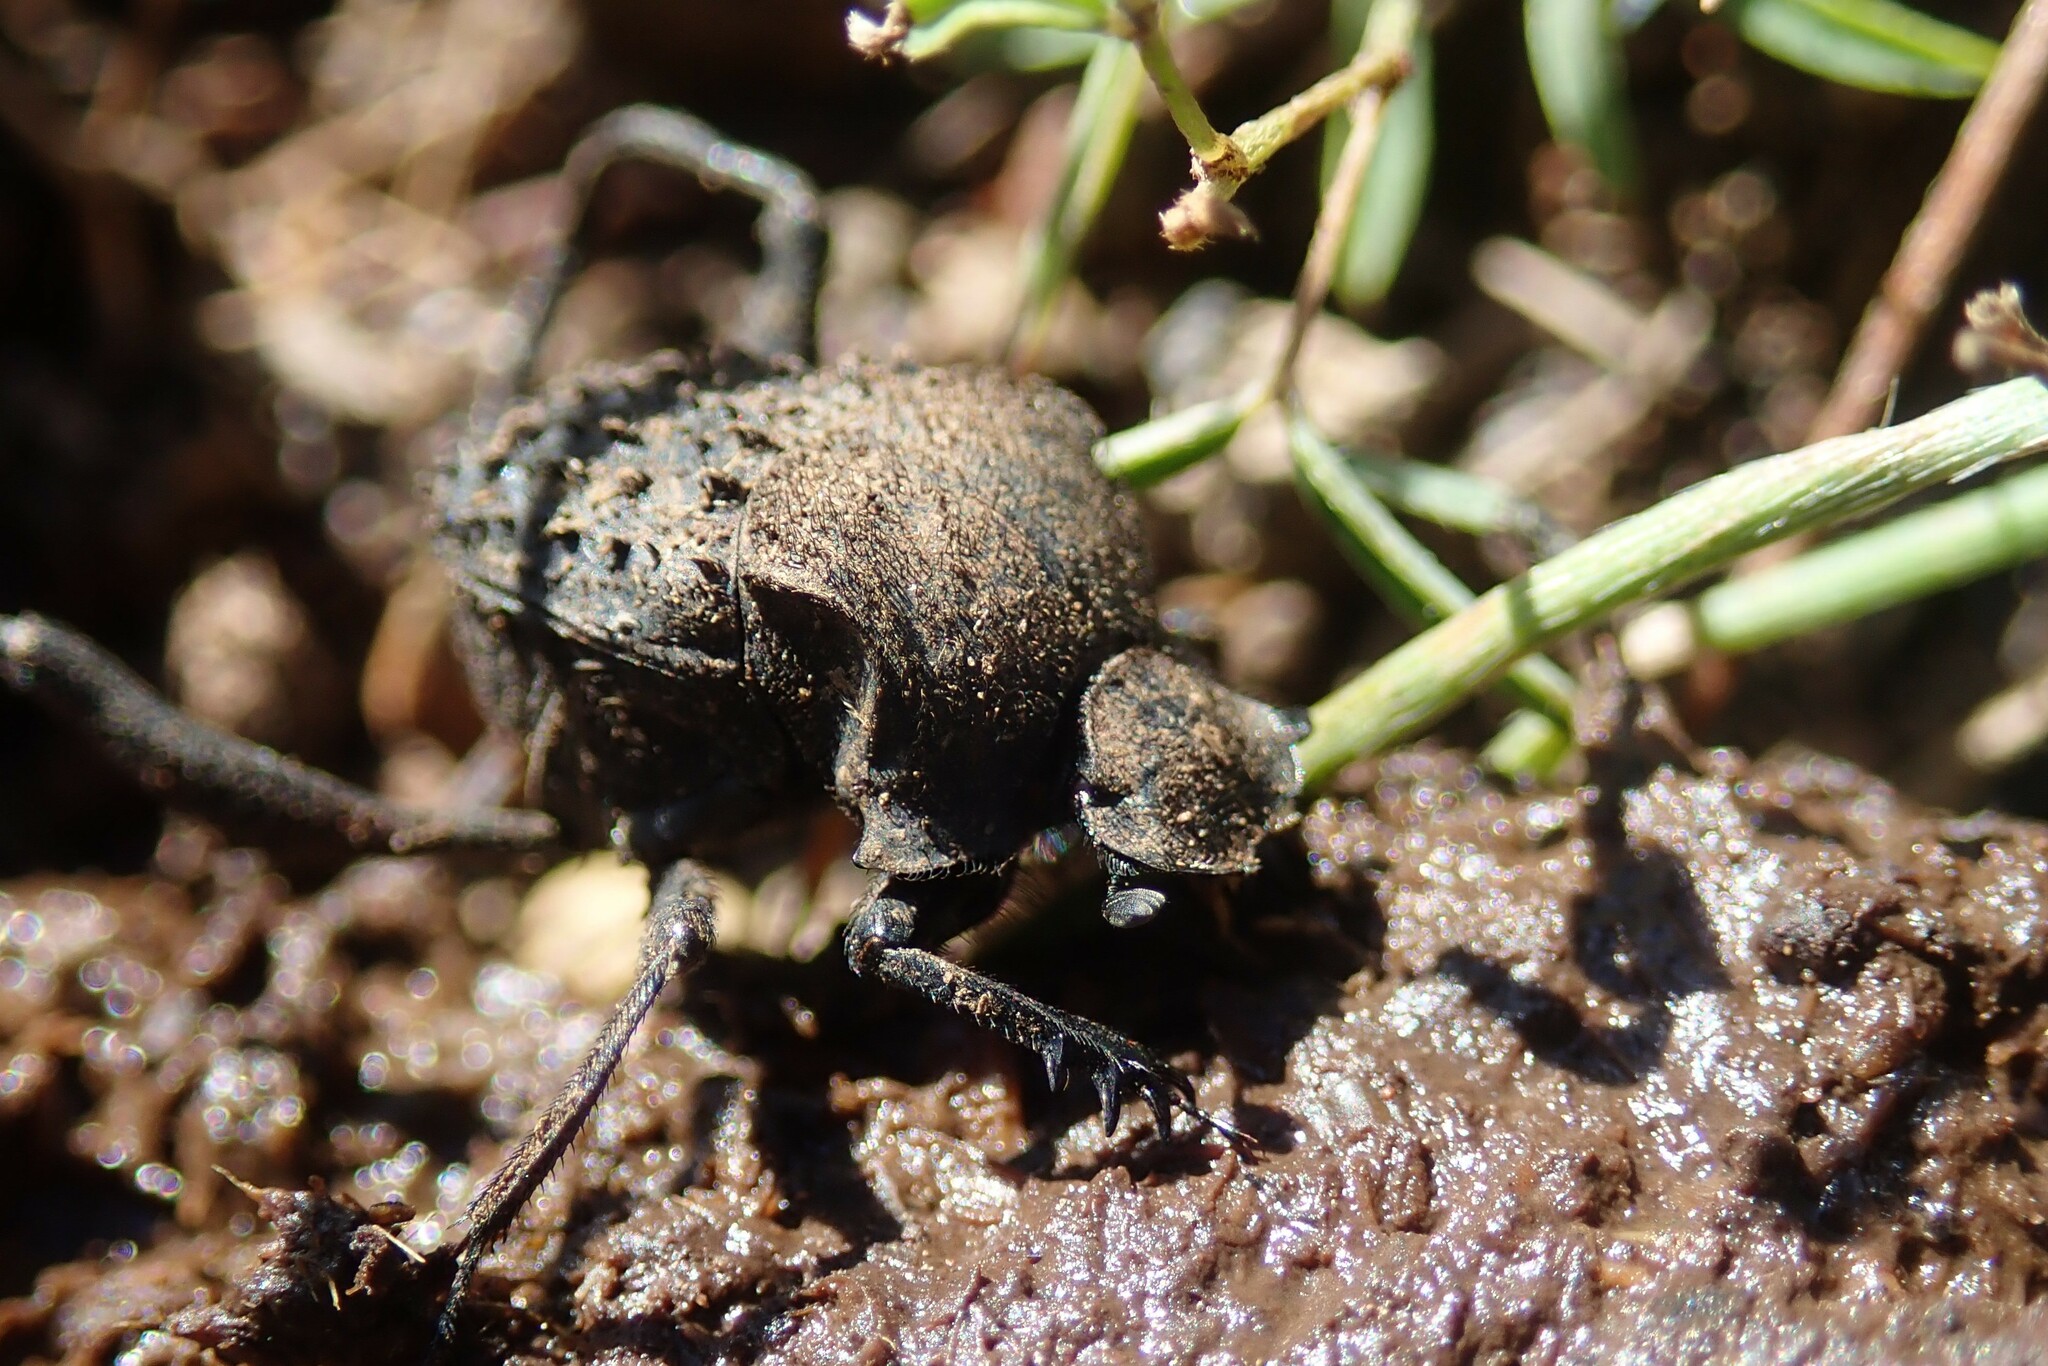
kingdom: Animalia
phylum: Arthropoda
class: Insecta
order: Coleoptera
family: Scarabaeidae
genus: Sisyphus
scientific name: Sisyphus muricatus
